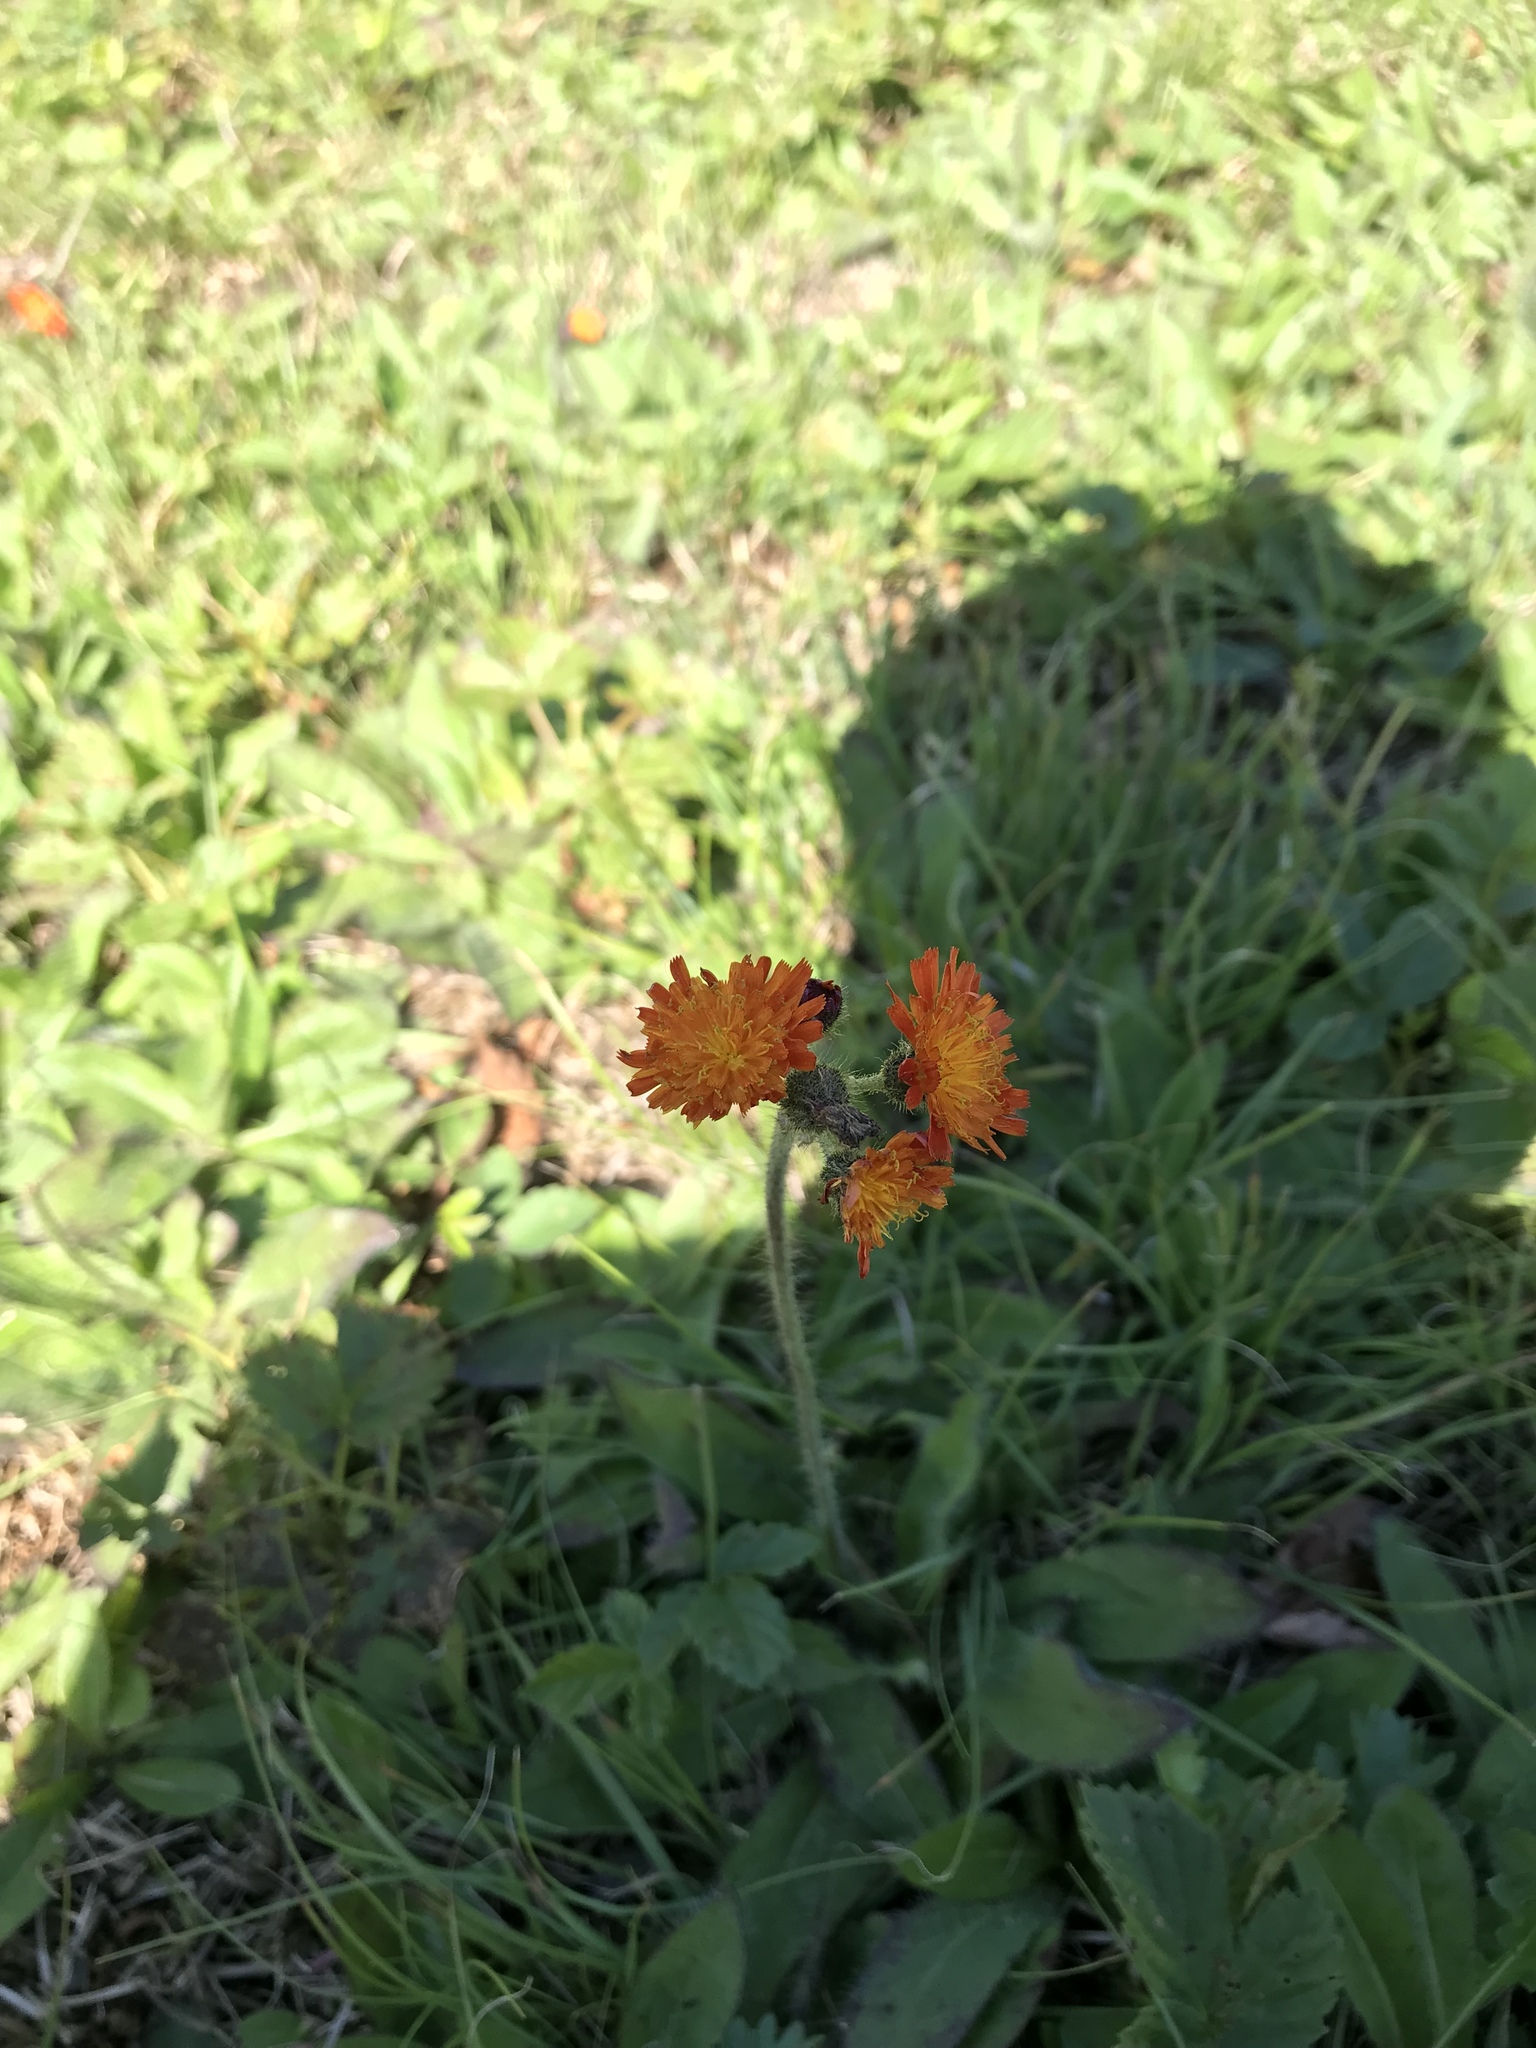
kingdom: Plantae
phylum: Tracheophyta
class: Magnoliopsida
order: Asterales
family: Asteraceae
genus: Pilosella
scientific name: Pilosella aurantiaca
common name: Fox-and-cubs
